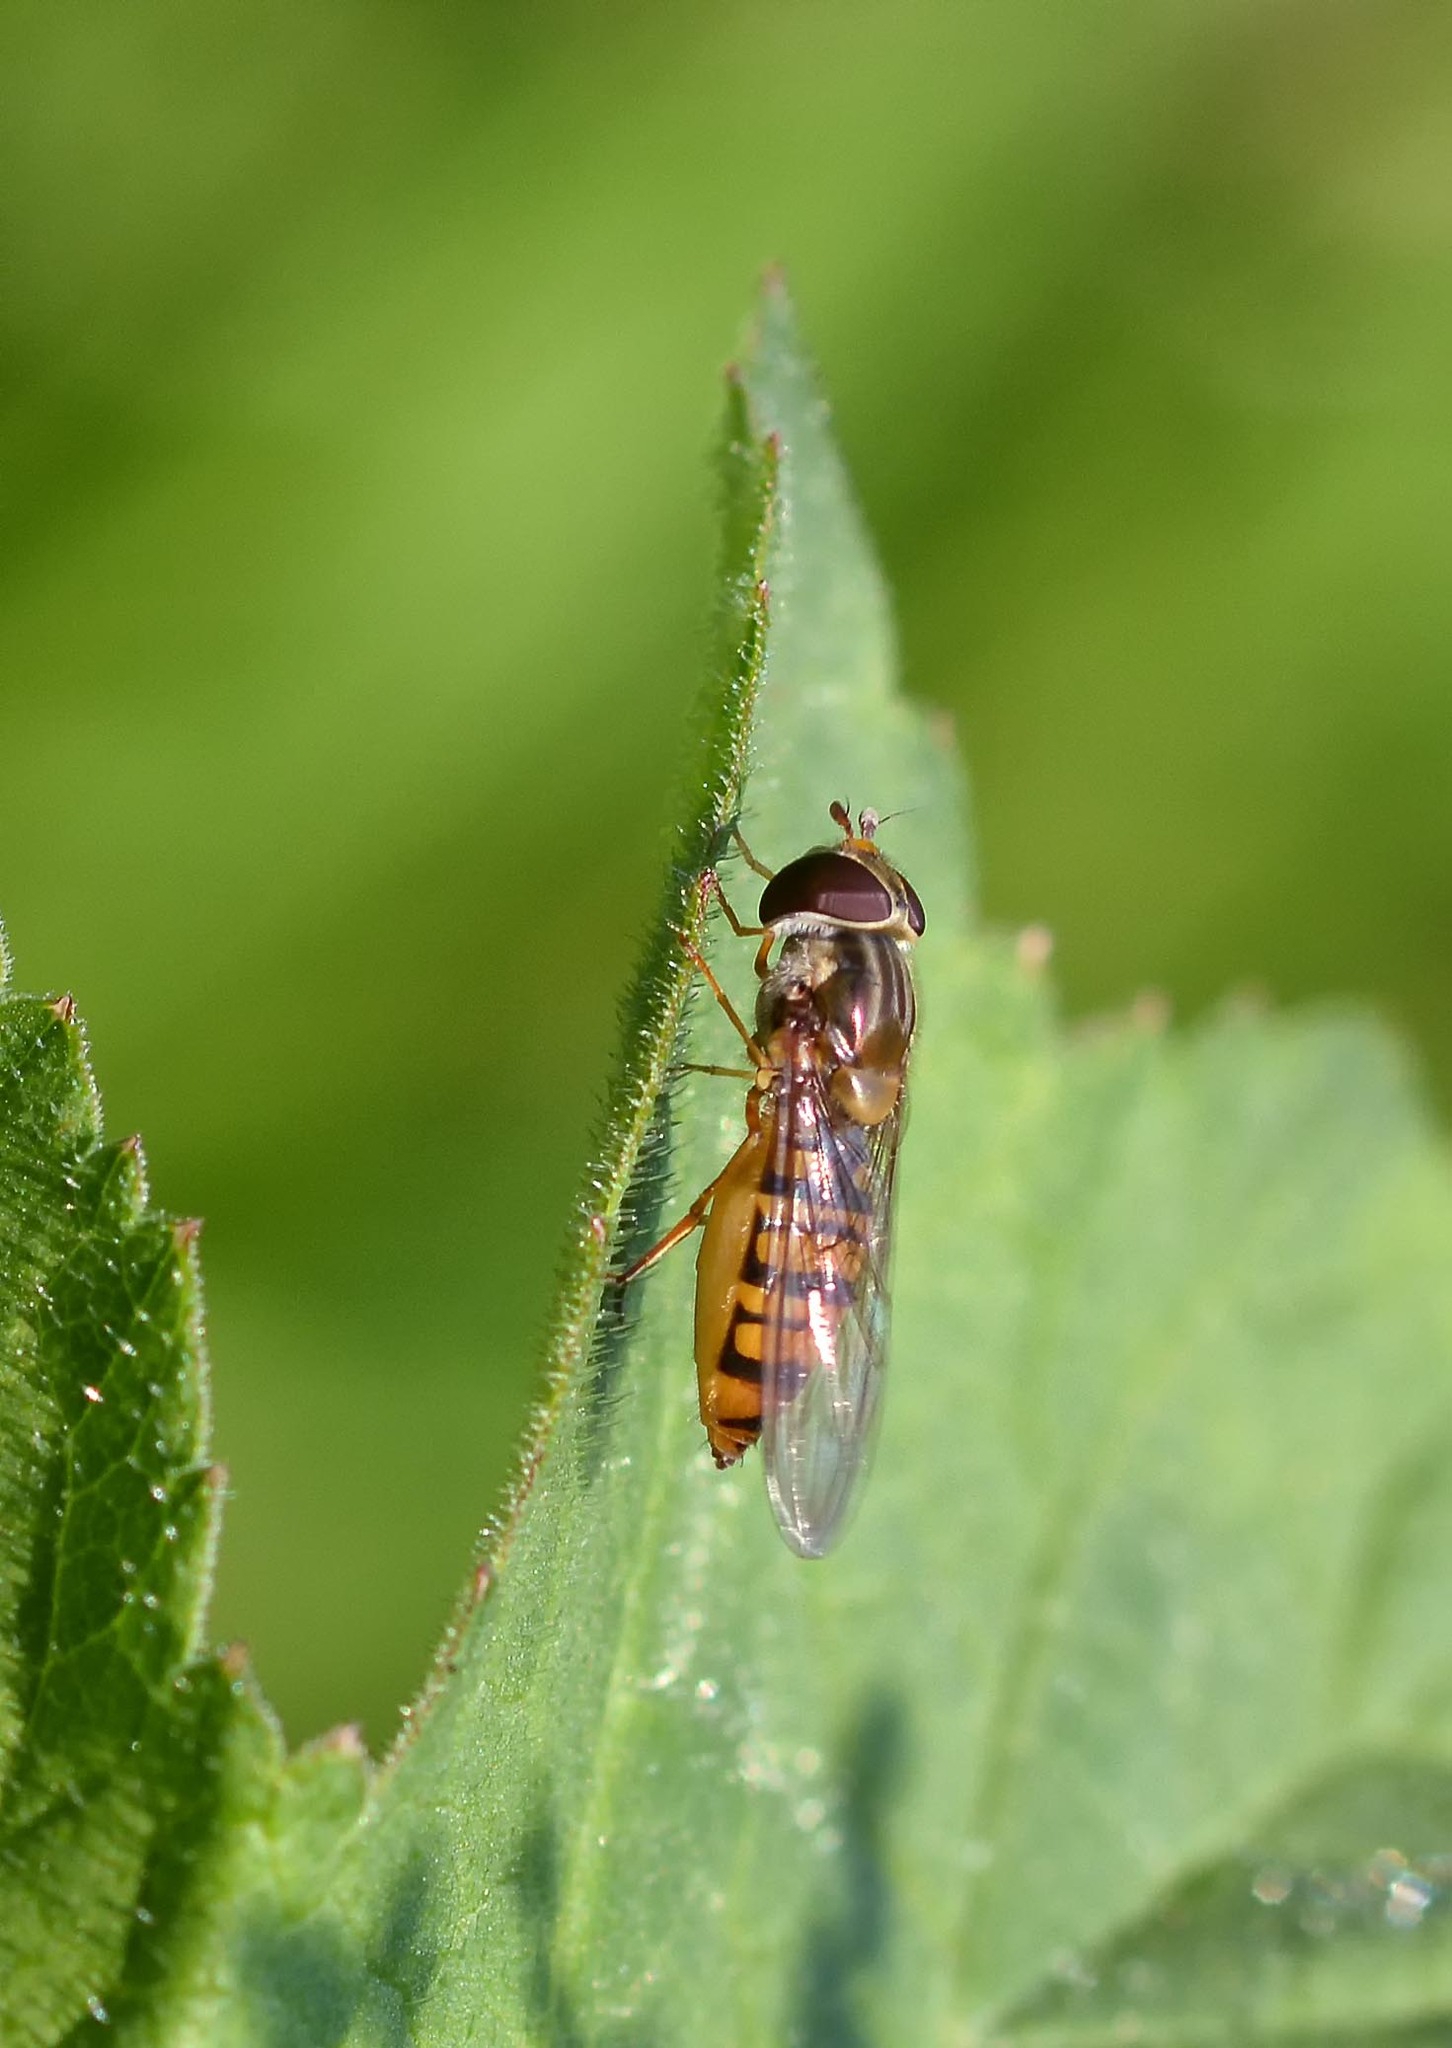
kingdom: Animalia
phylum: Arthropoda
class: Insecta
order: Diptera
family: Syrphidae
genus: Episyrphus
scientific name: Episyrphus balteatus
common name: Marmalade hoverfly
